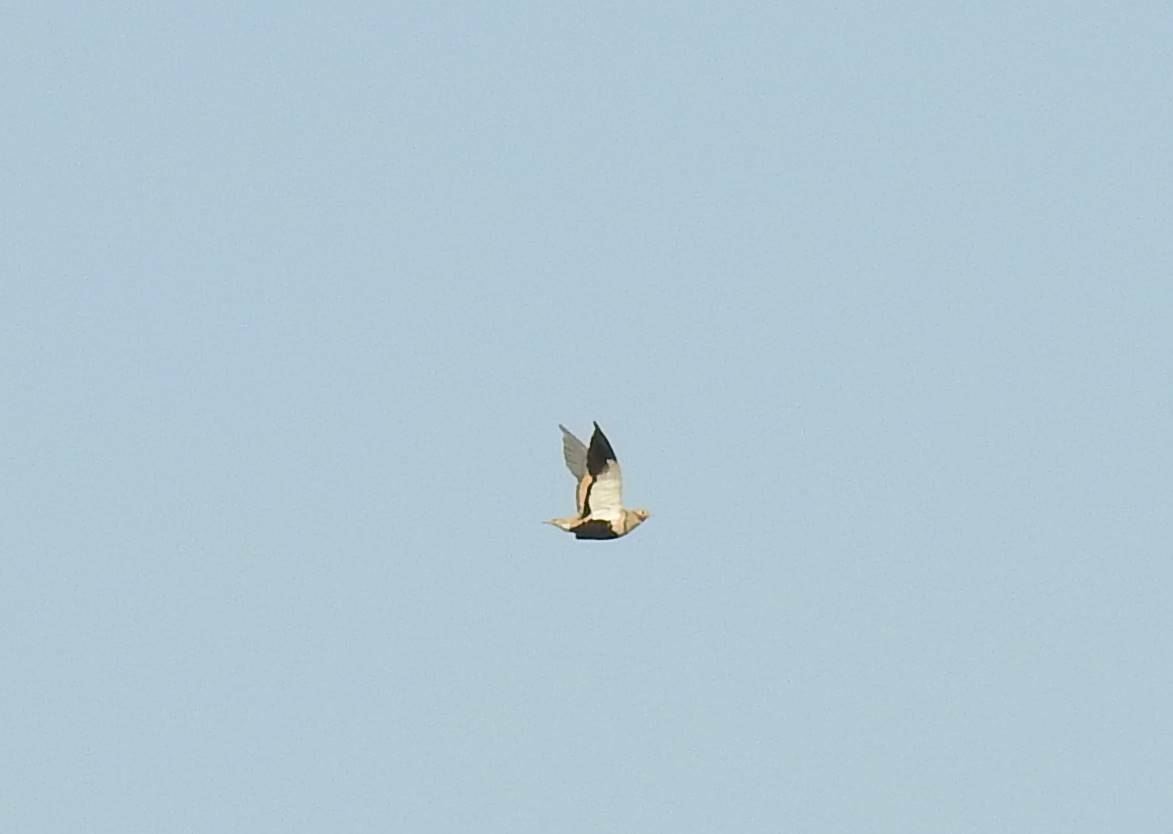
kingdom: Animalia
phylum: Chordata
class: Aves
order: Pteroclidiformes
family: Pteroclididae
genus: Pterocles
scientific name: Pterocles orientalis
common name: Black-bellied sandgrouse
